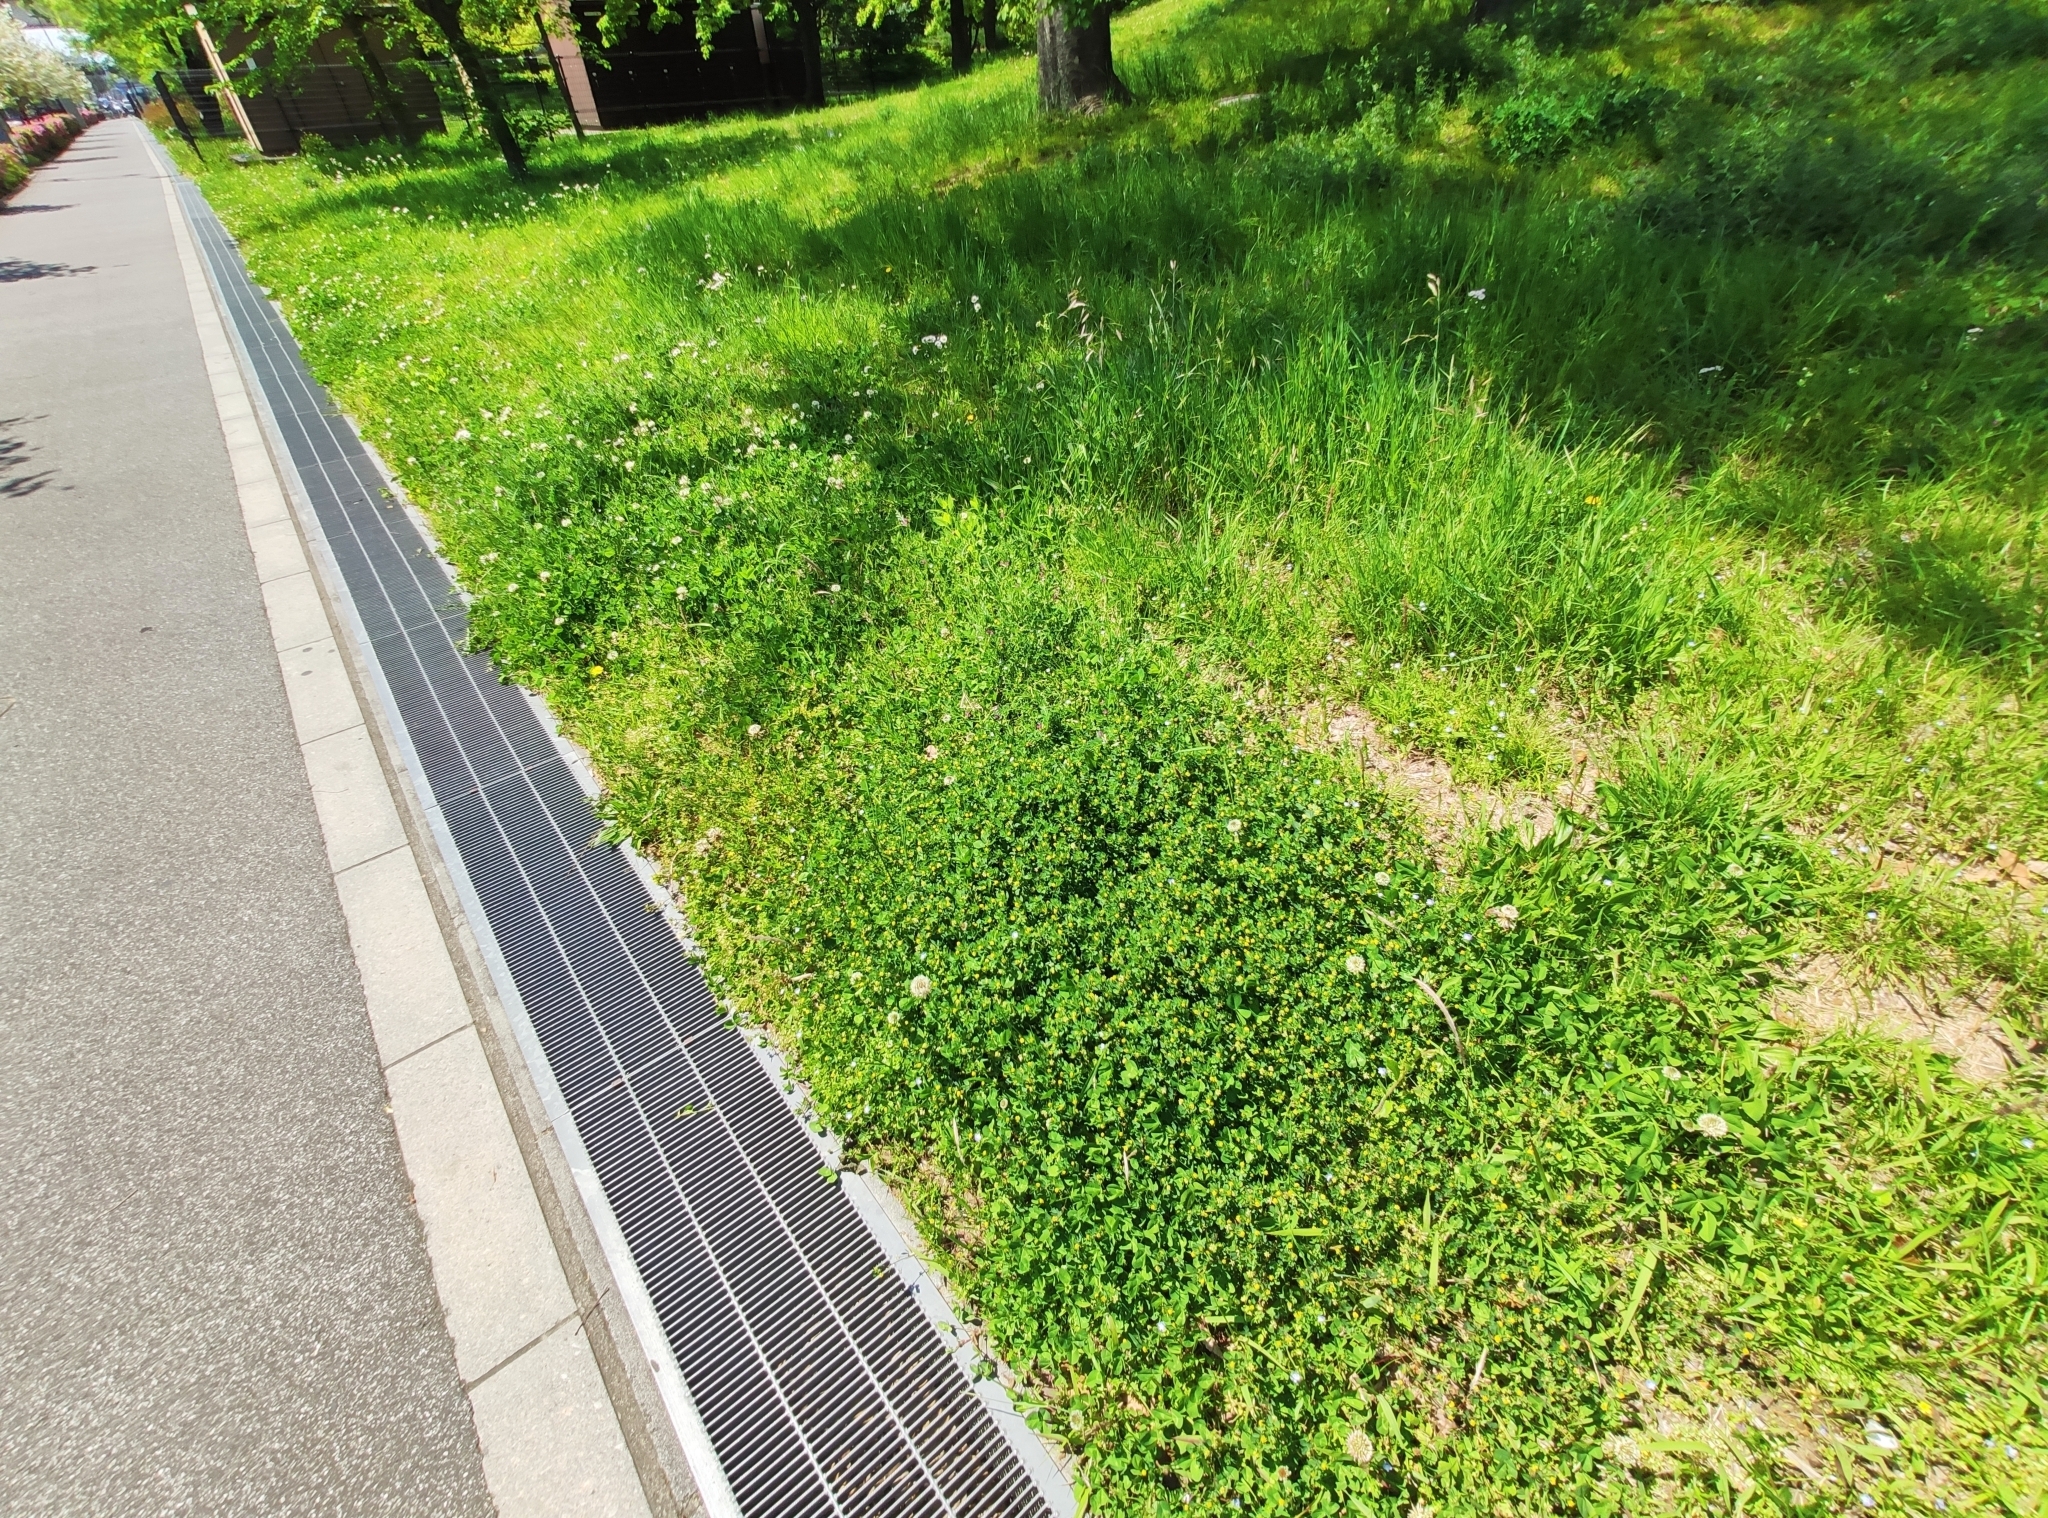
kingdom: Plantae
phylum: Tracheophyta
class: Magnoliopsida
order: Fabales
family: Fabaceae
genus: Trifolium
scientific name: Trifolium dubium
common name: Suckling clover
